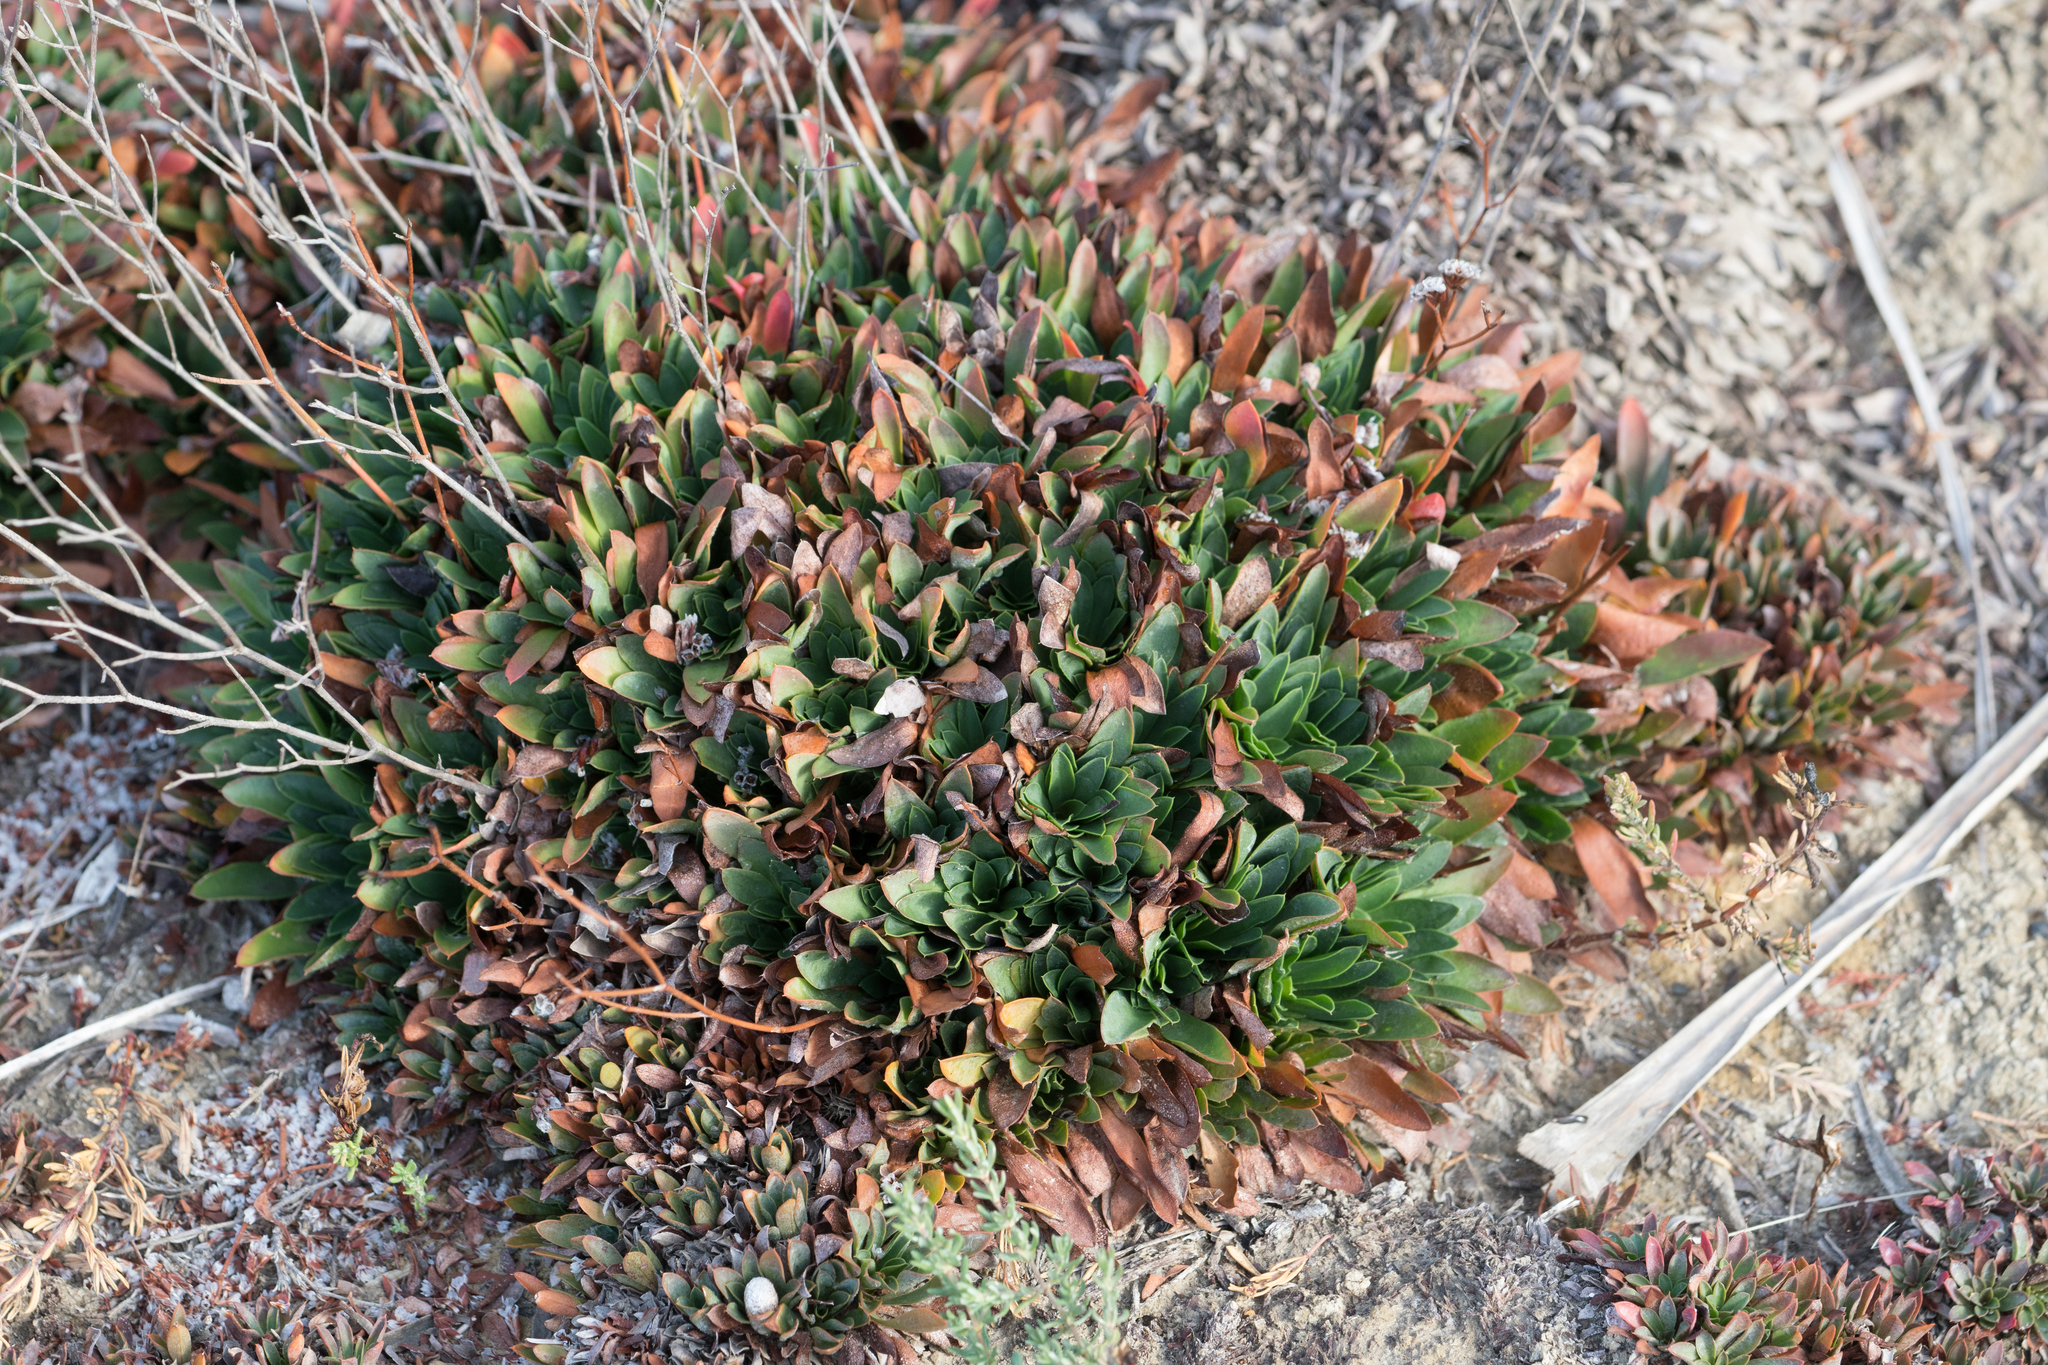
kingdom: Plantae
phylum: Tracheophyta
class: Magnoliopsida
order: Caryophyllales
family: Plumbaginaceae
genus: Limonium
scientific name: Limonium
